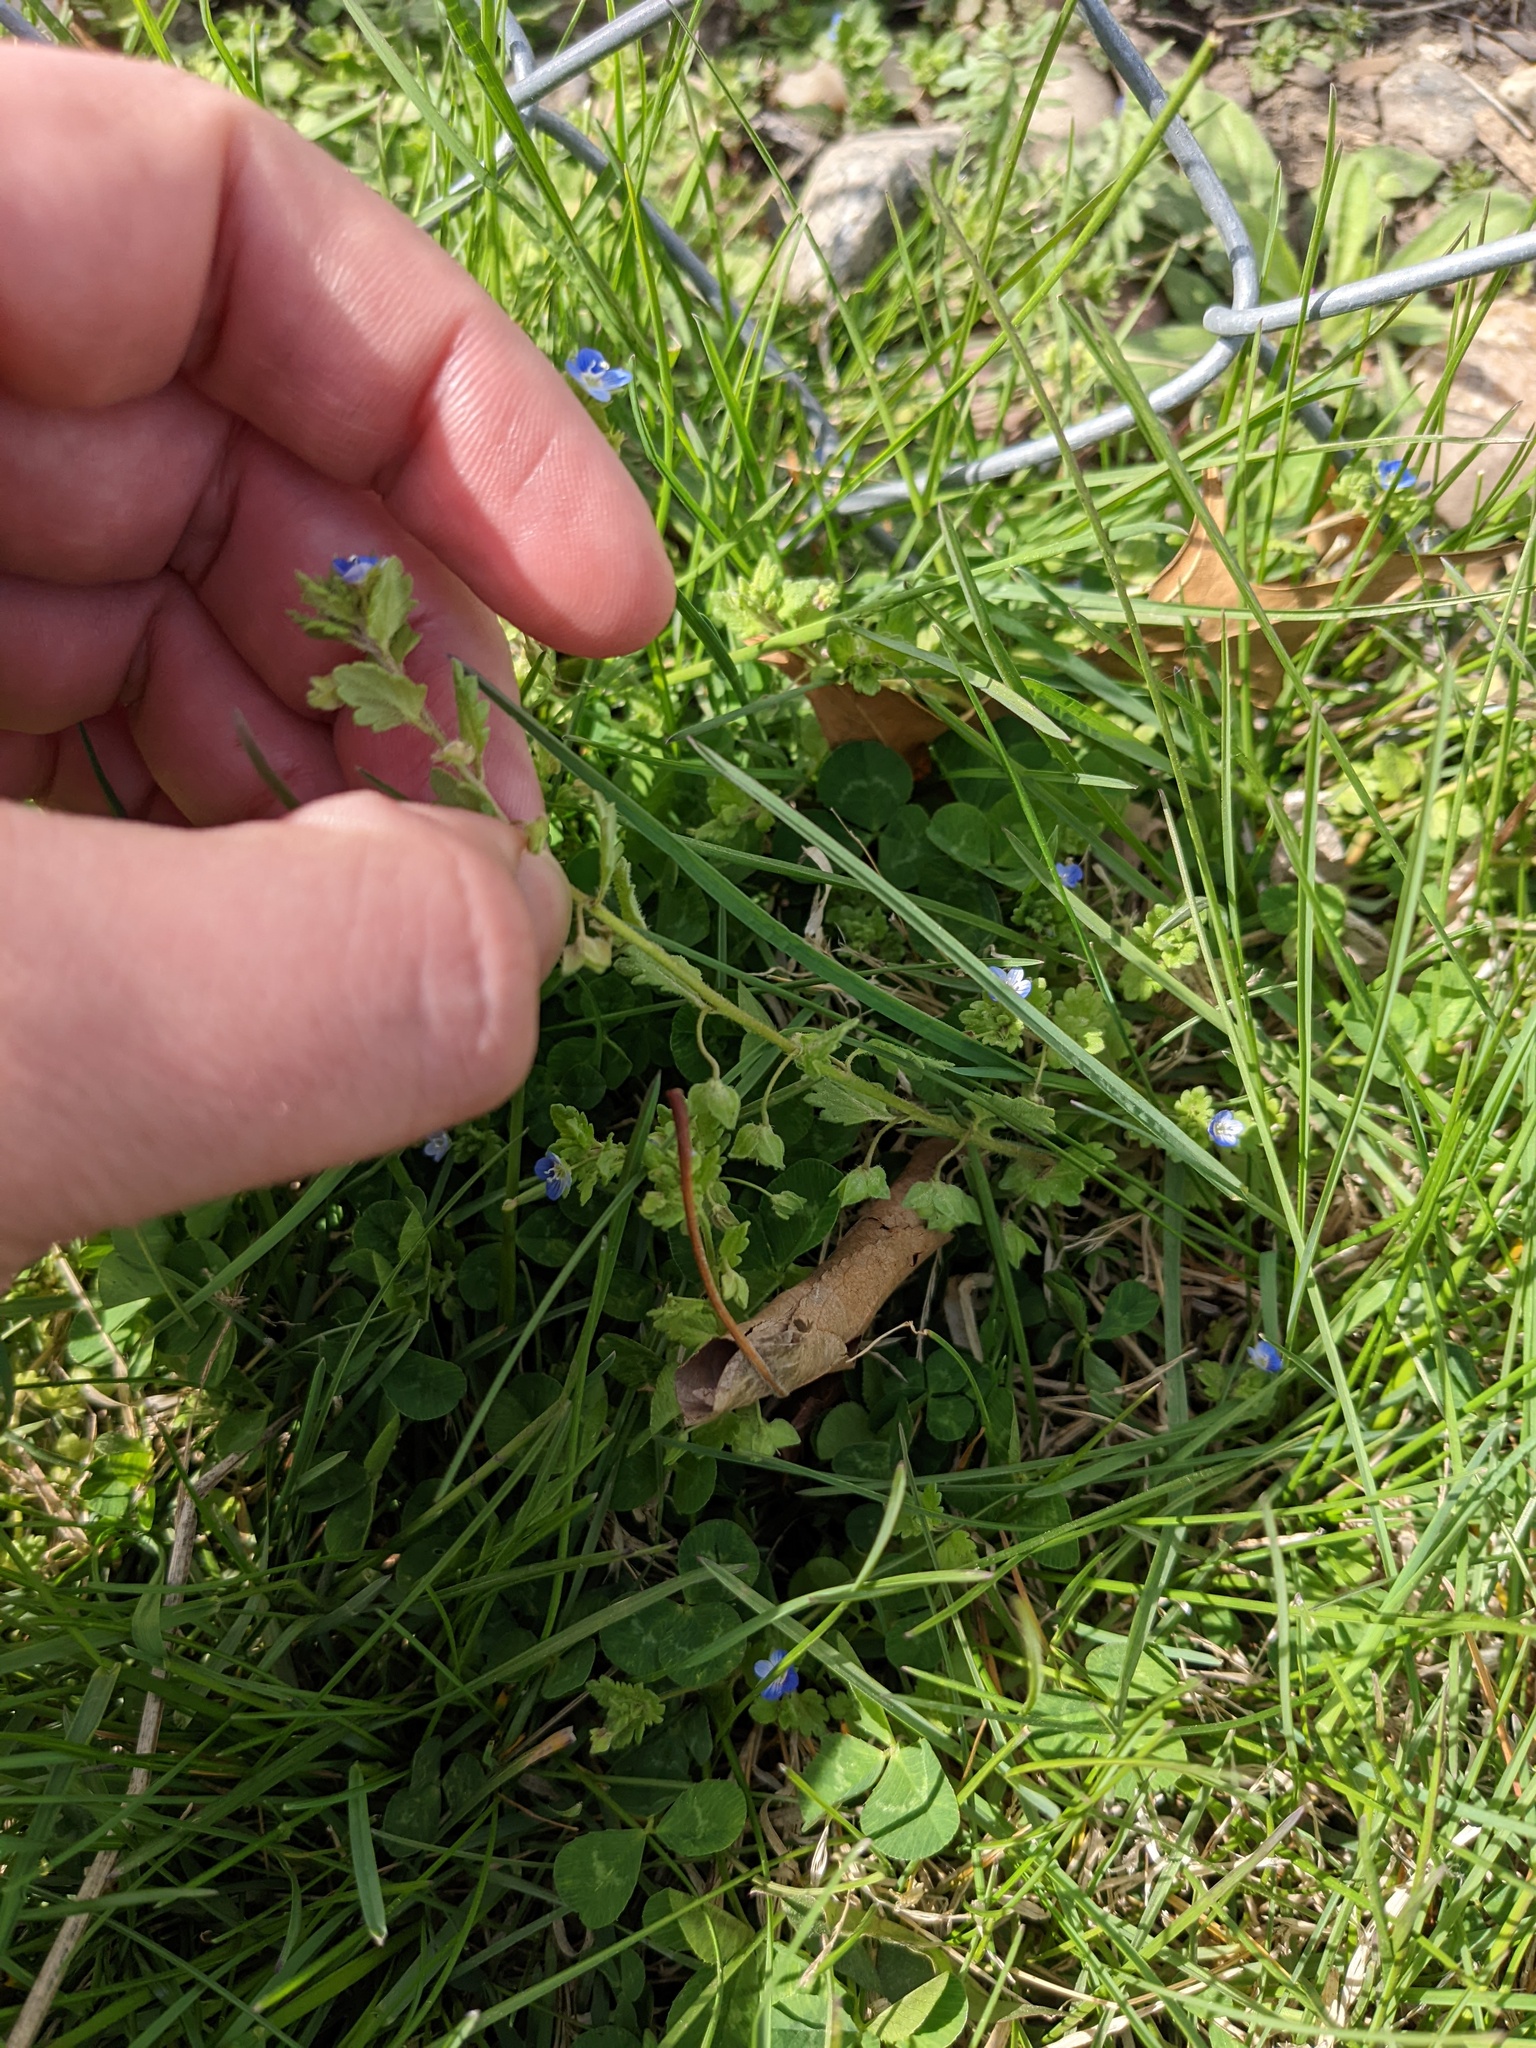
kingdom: Plantae
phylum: Tracheophyta
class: Magnoliopsida
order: Lamiales
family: Plantaginaceae
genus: Veronica
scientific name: Veronica polita
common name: Grey field-speedwell
